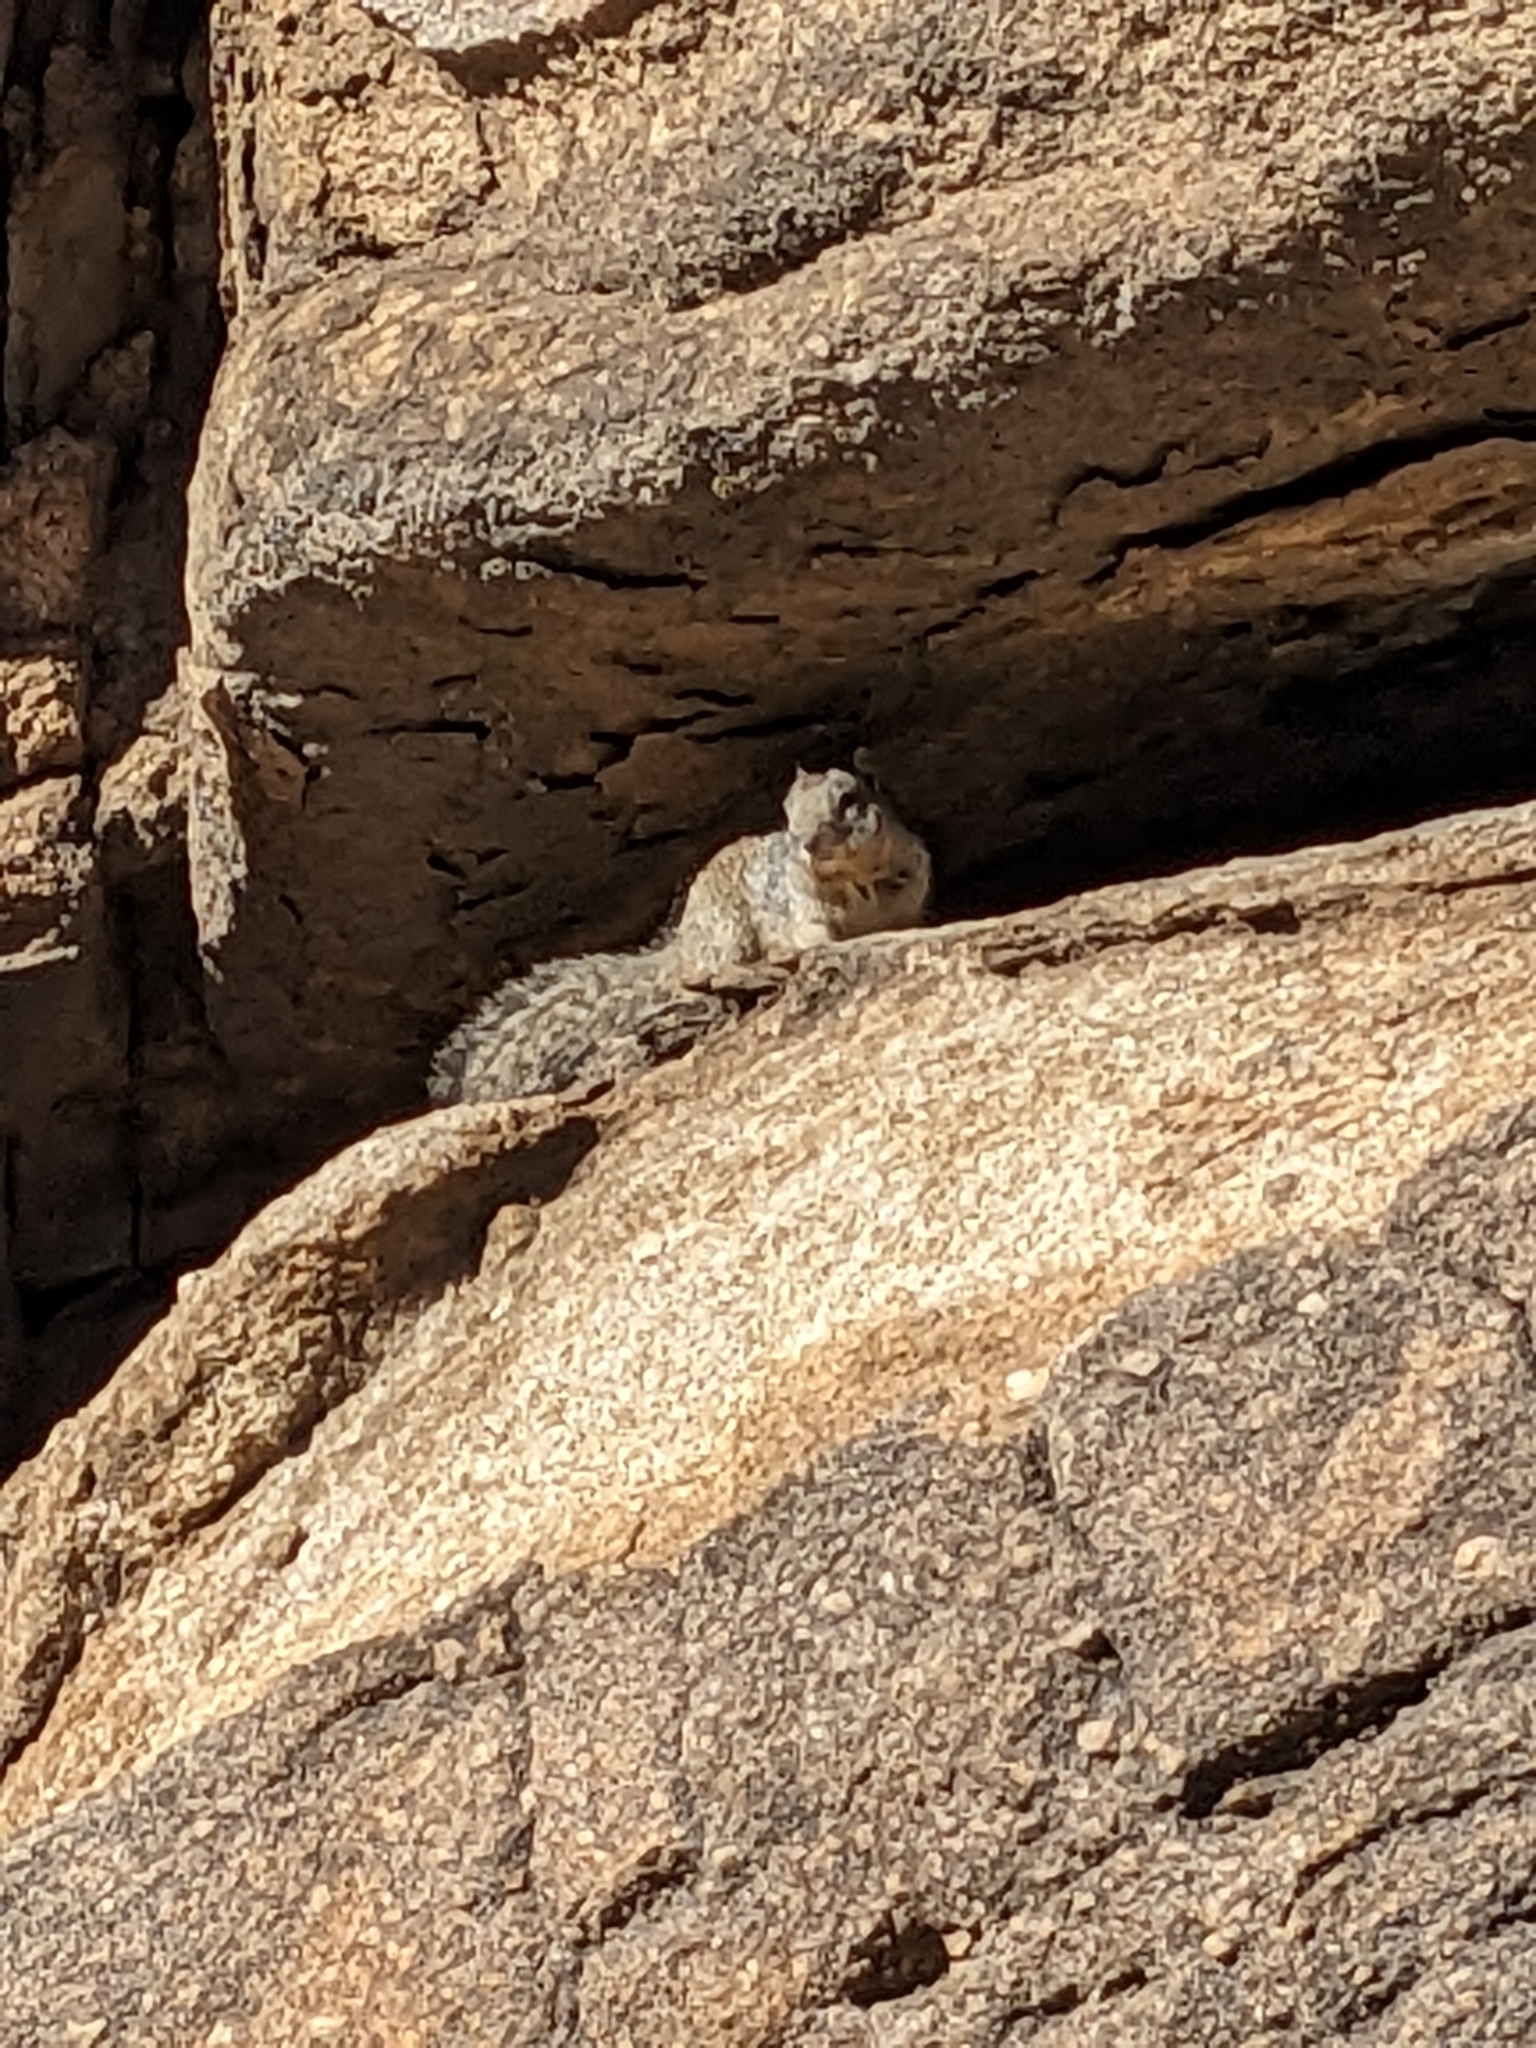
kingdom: Animalia
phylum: Chordata
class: Mammalia
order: Rodentia
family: Sciuridae
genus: Otospermophilus
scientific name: Otospermophilus variegatus
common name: Rock squirrel
